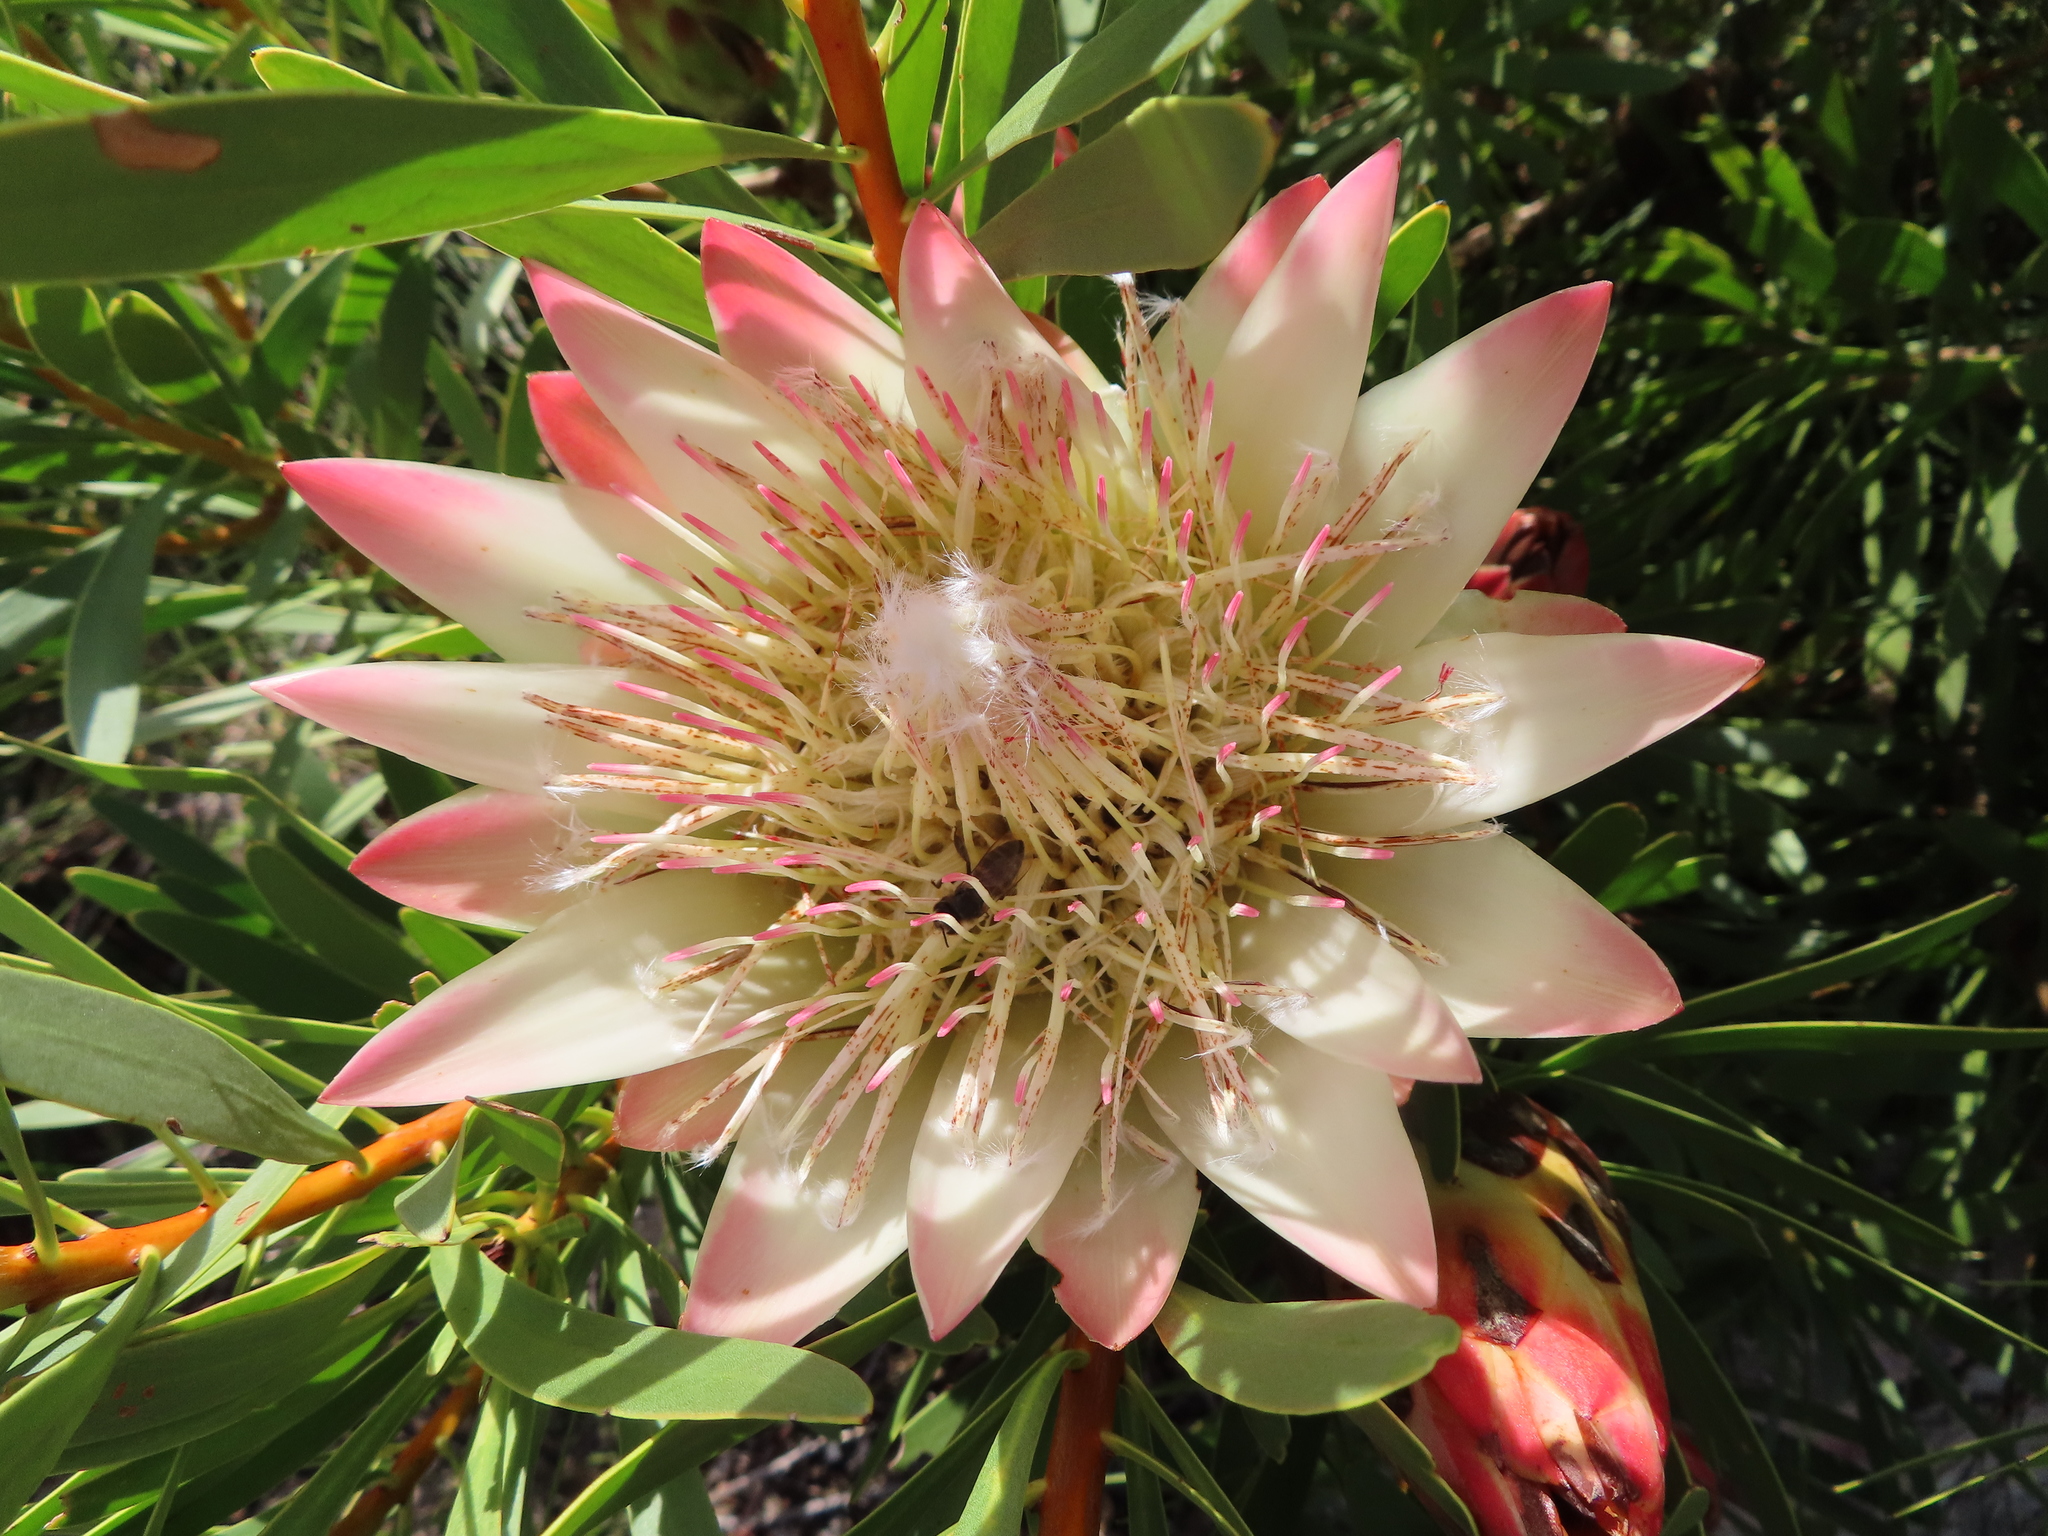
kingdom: Plantae
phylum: Tracheophyta
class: Magnoliopsida
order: Proteales
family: Proteaceae
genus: Protea
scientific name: Protea repens
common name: Sugarbush
